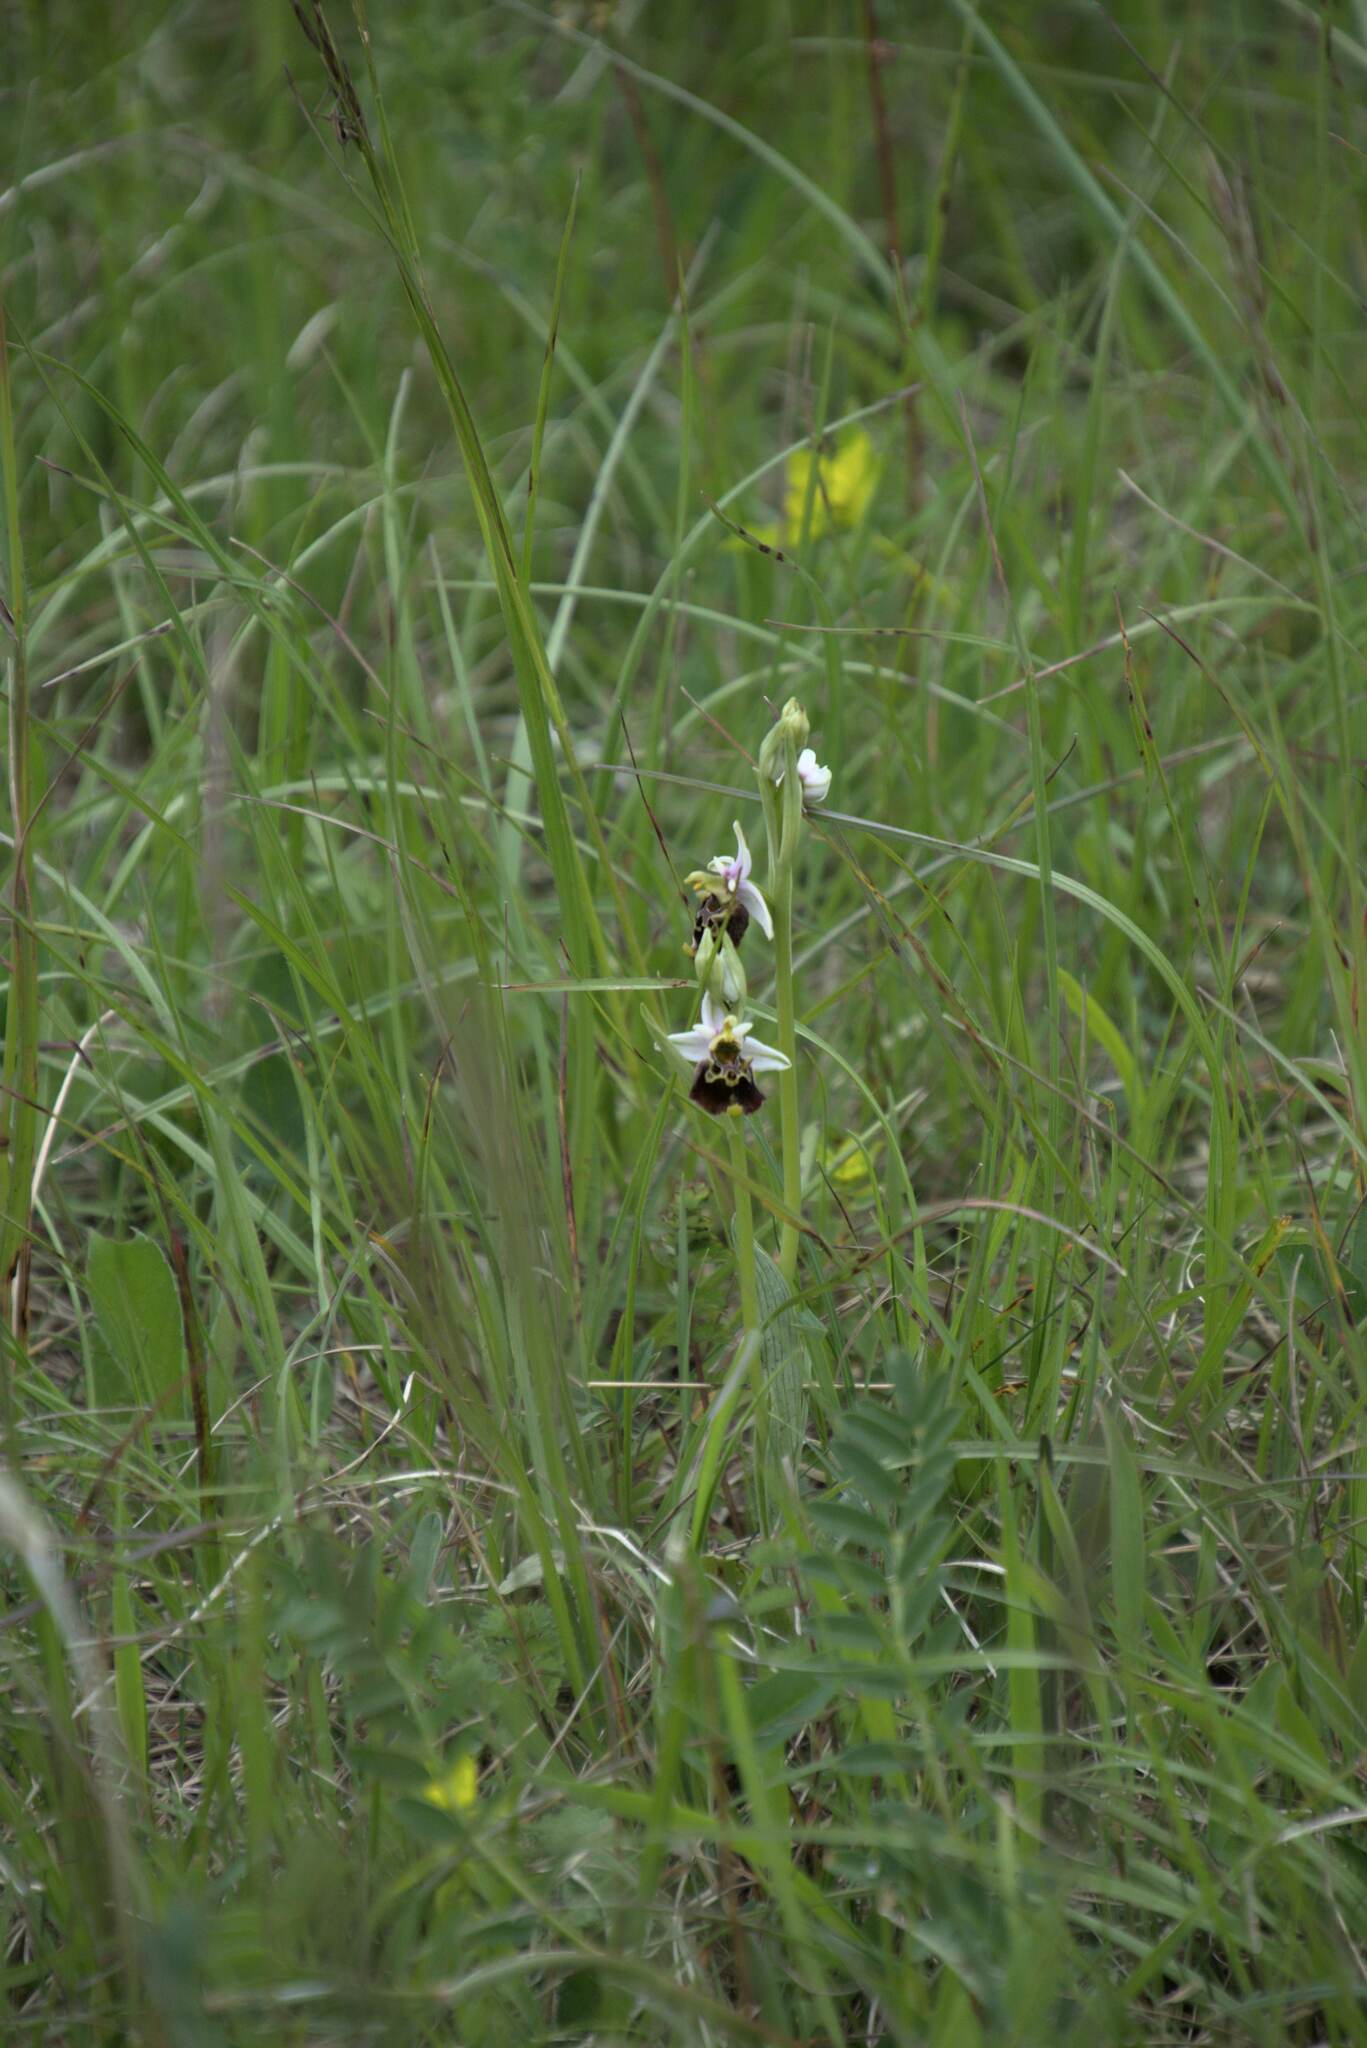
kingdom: Plantae
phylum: Tracheophyta
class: Liliopsida
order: Asparagales
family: Orchidaceae
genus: Ophrys
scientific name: Ophrys holosericea
